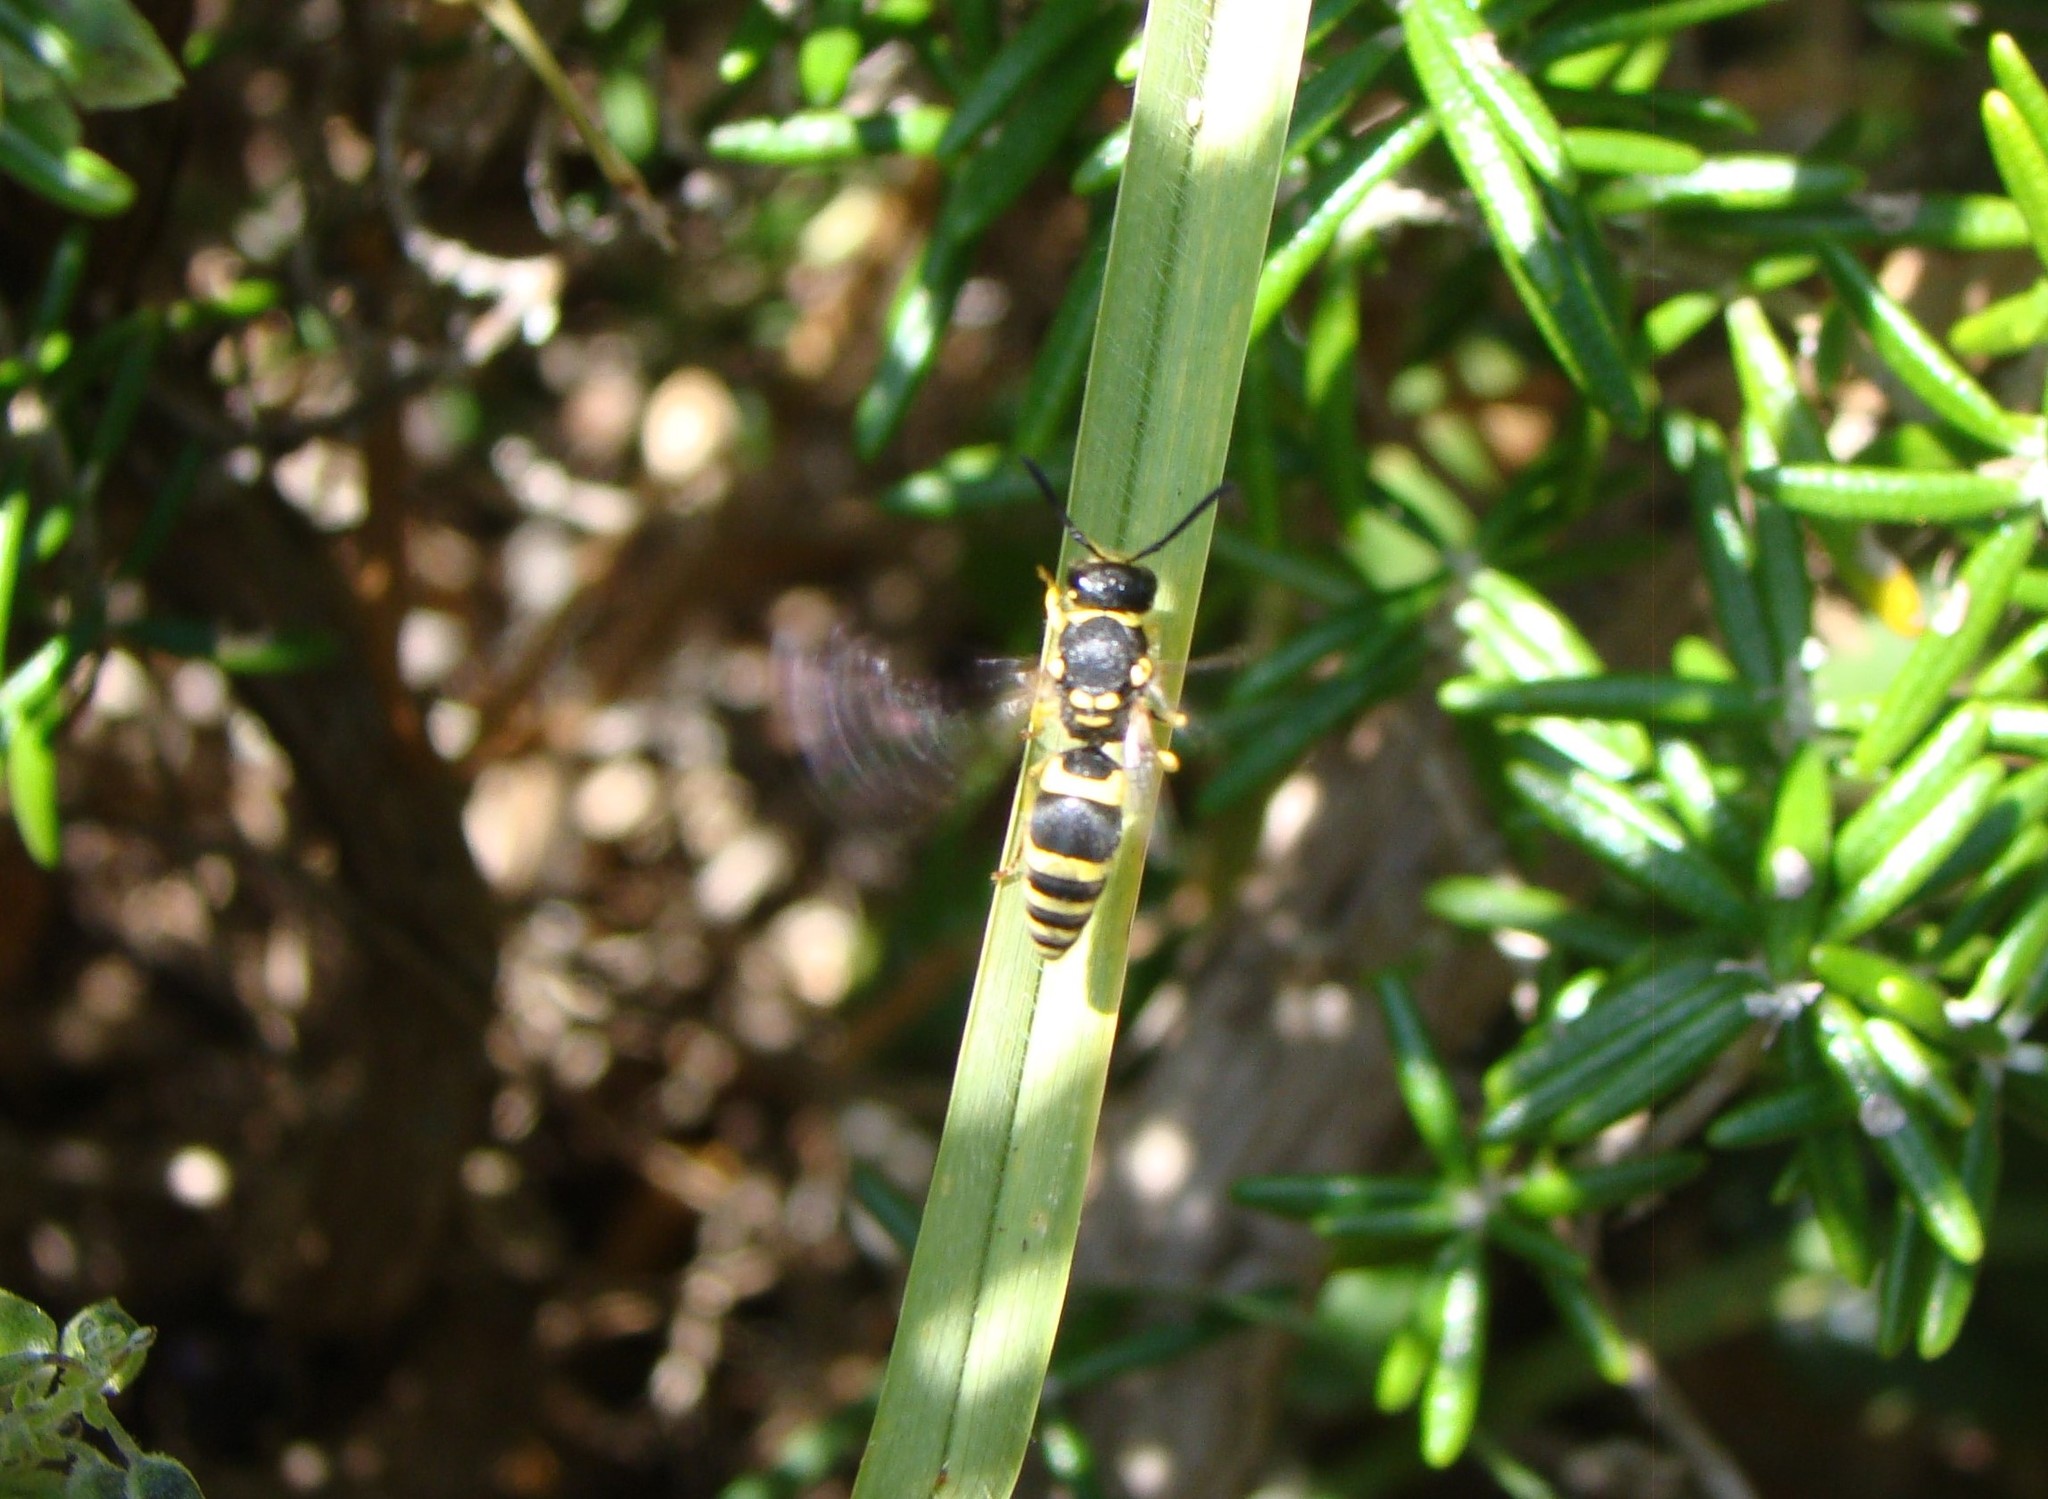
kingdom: Animalia
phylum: Arthropoda
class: Insecta
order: Hymenoptera
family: Vespidae
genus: Ancistrocerus
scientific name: Ancistrocerus gazella
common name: European tube wasp
